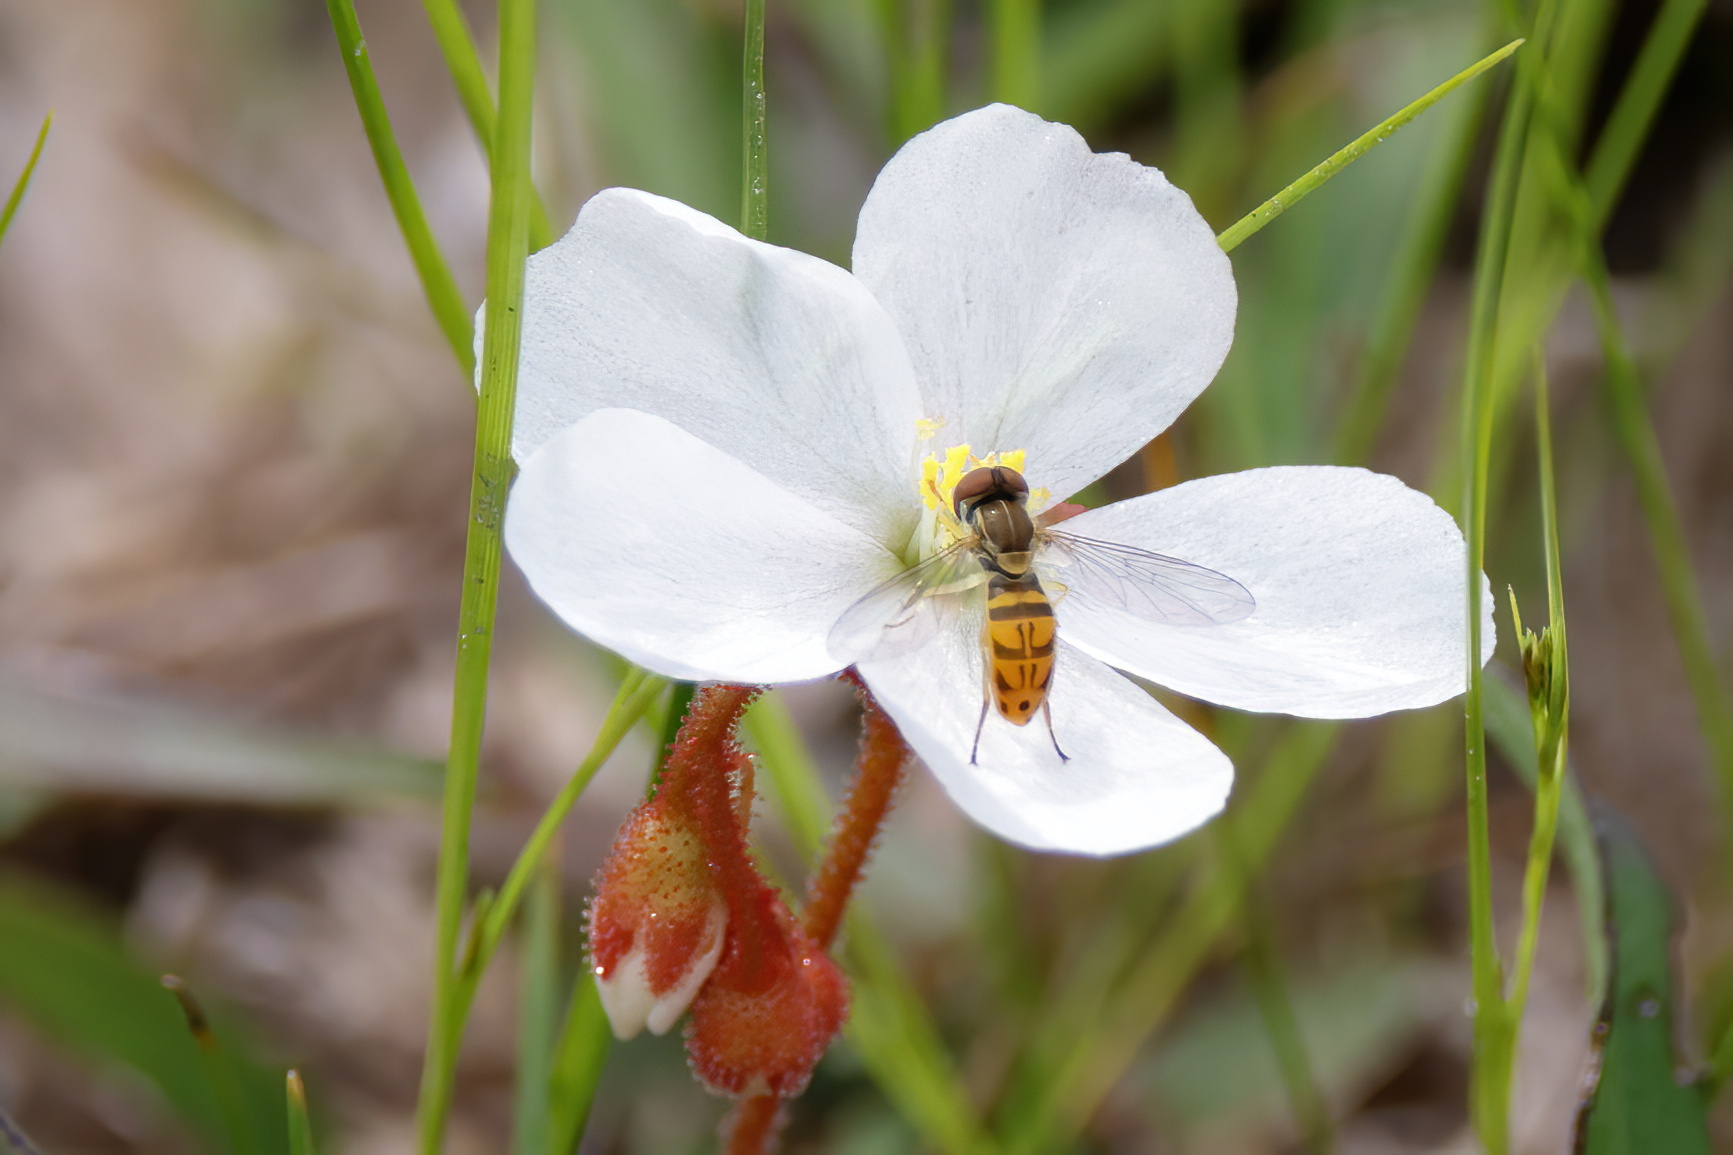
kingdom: Animalia
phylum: Arthropoda
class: Insecta
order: Diptera
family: Syrphidae
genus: Toxomerus
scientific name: Toxomerus marginatus
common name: Syrphid fly
